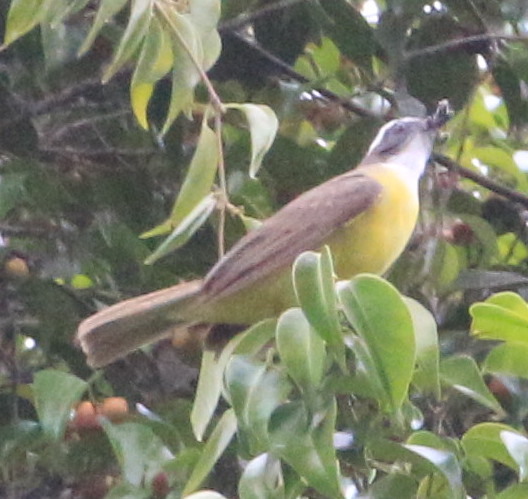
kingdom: Animalia
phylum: Chordata
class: Aves
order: Passeriformes
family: Tyrannidae
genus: Myiozetetes
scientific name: Myiozetetes similis
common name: Social flycatcher
